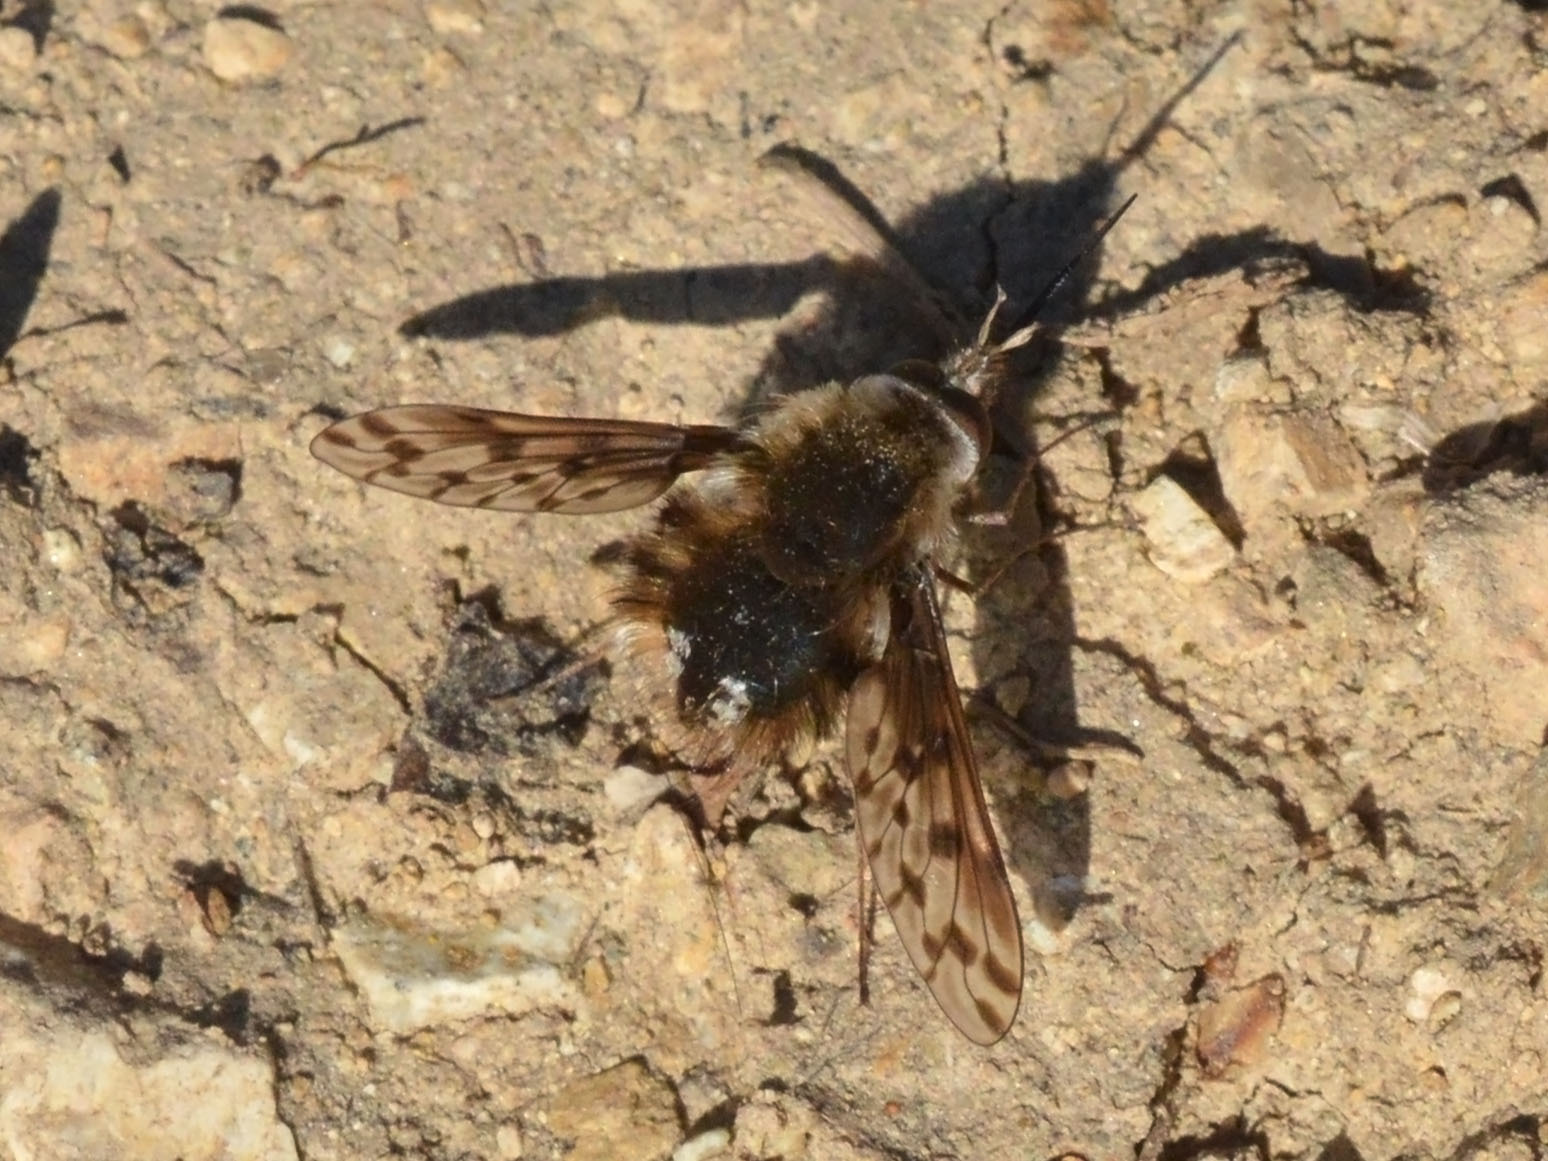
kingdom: Animalia
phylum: Arthropoda
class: Insecta
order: Diptera
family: Bombyliidae
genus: Triplasius
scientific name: Triplasius pictus
